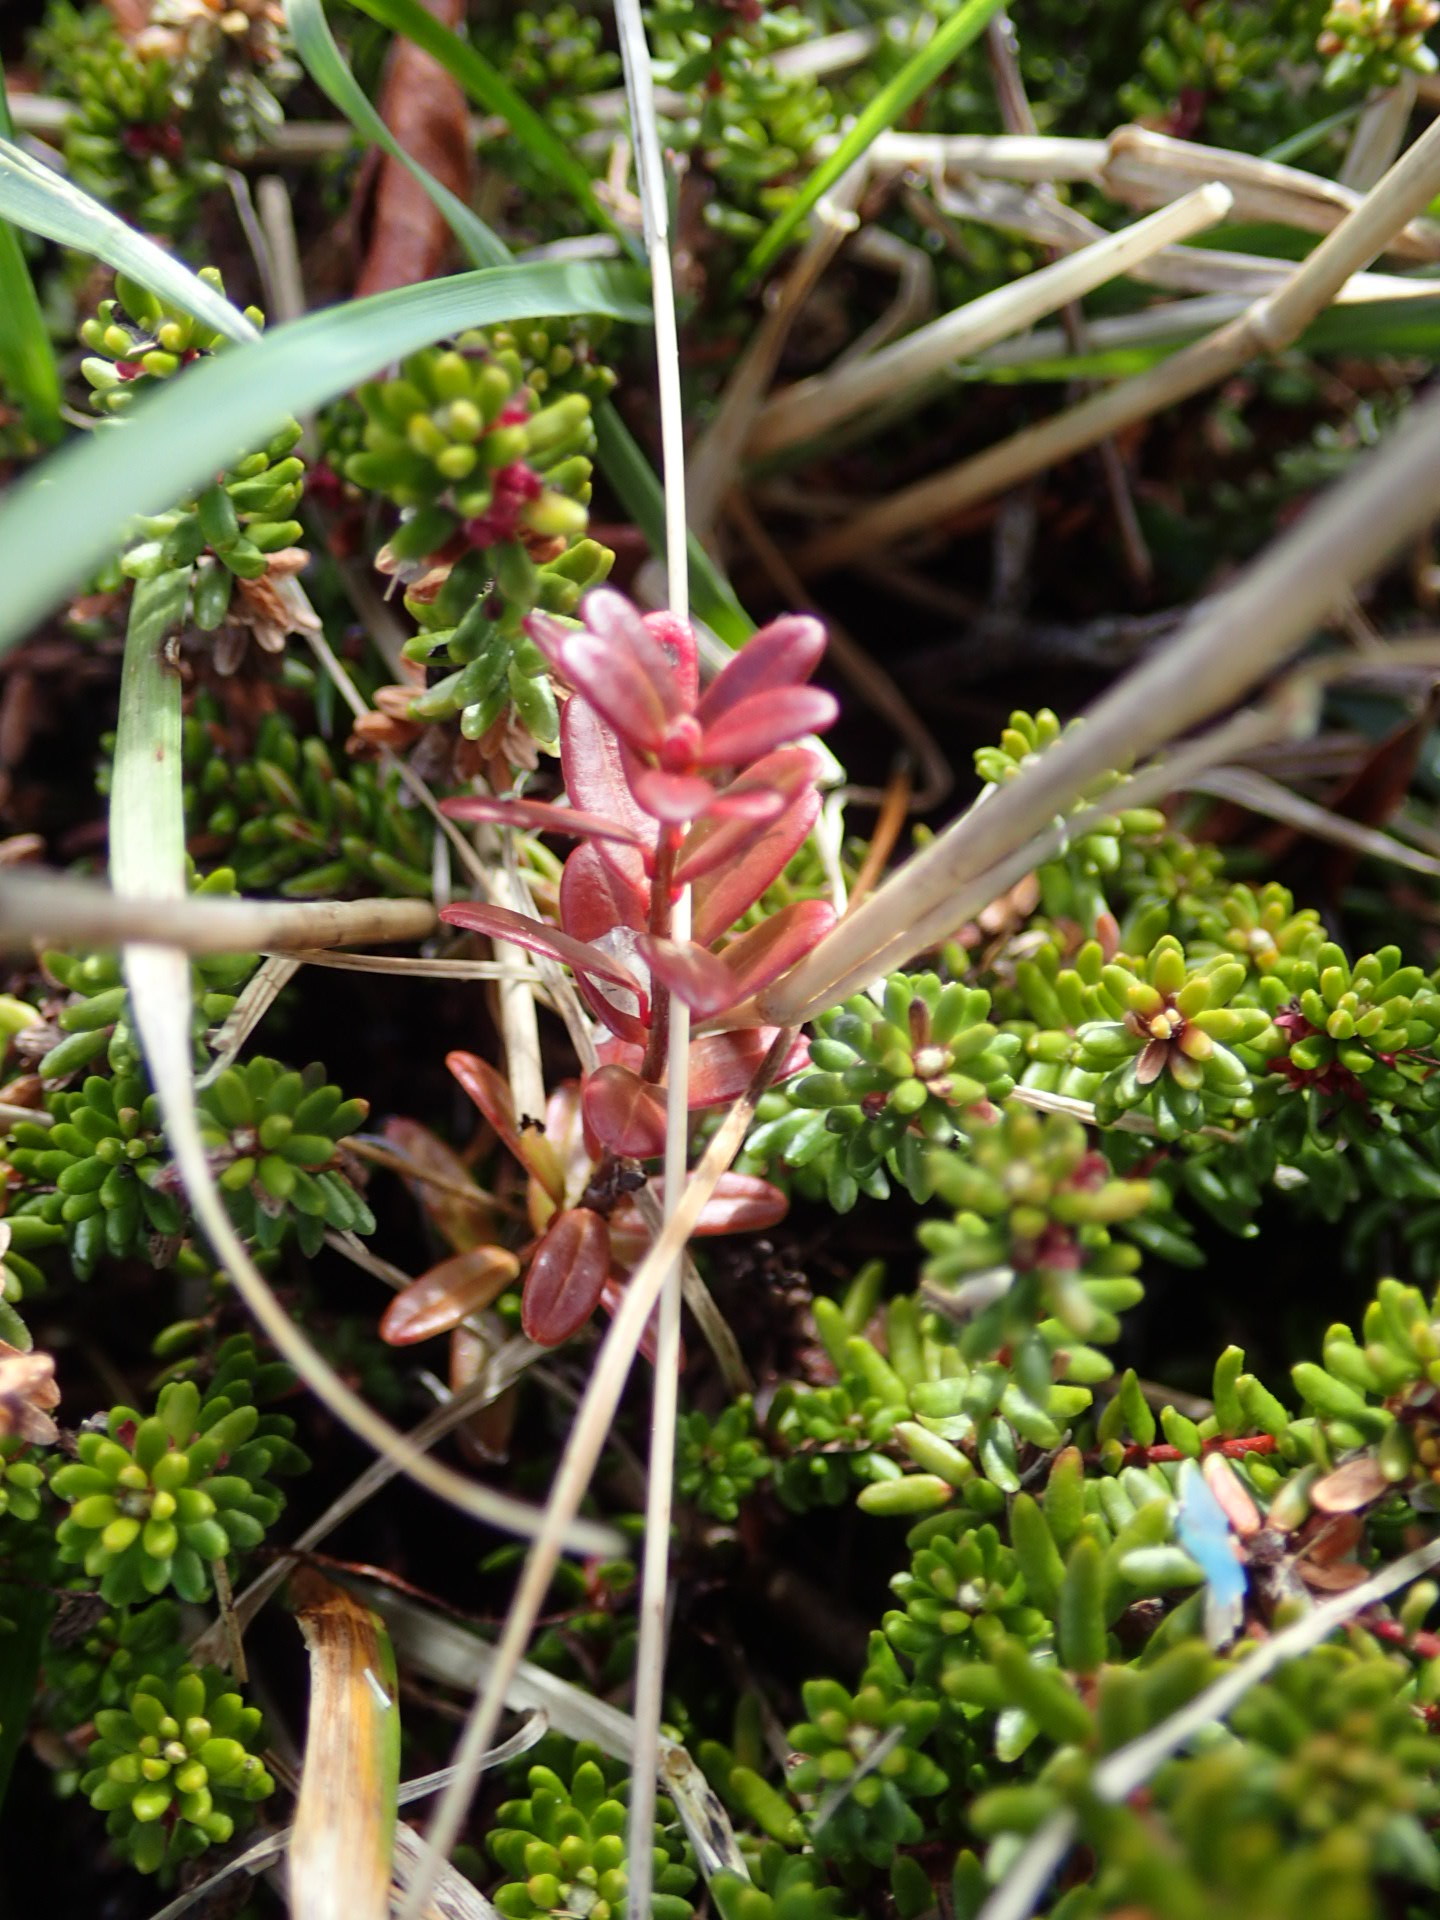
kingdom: Plantae
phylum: Tracheophyta
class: Magnoliopsida
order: Ericales
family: Ericaceae
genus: Vaccinium
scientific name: Vaccinium macrocarpon
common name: American cranberry
